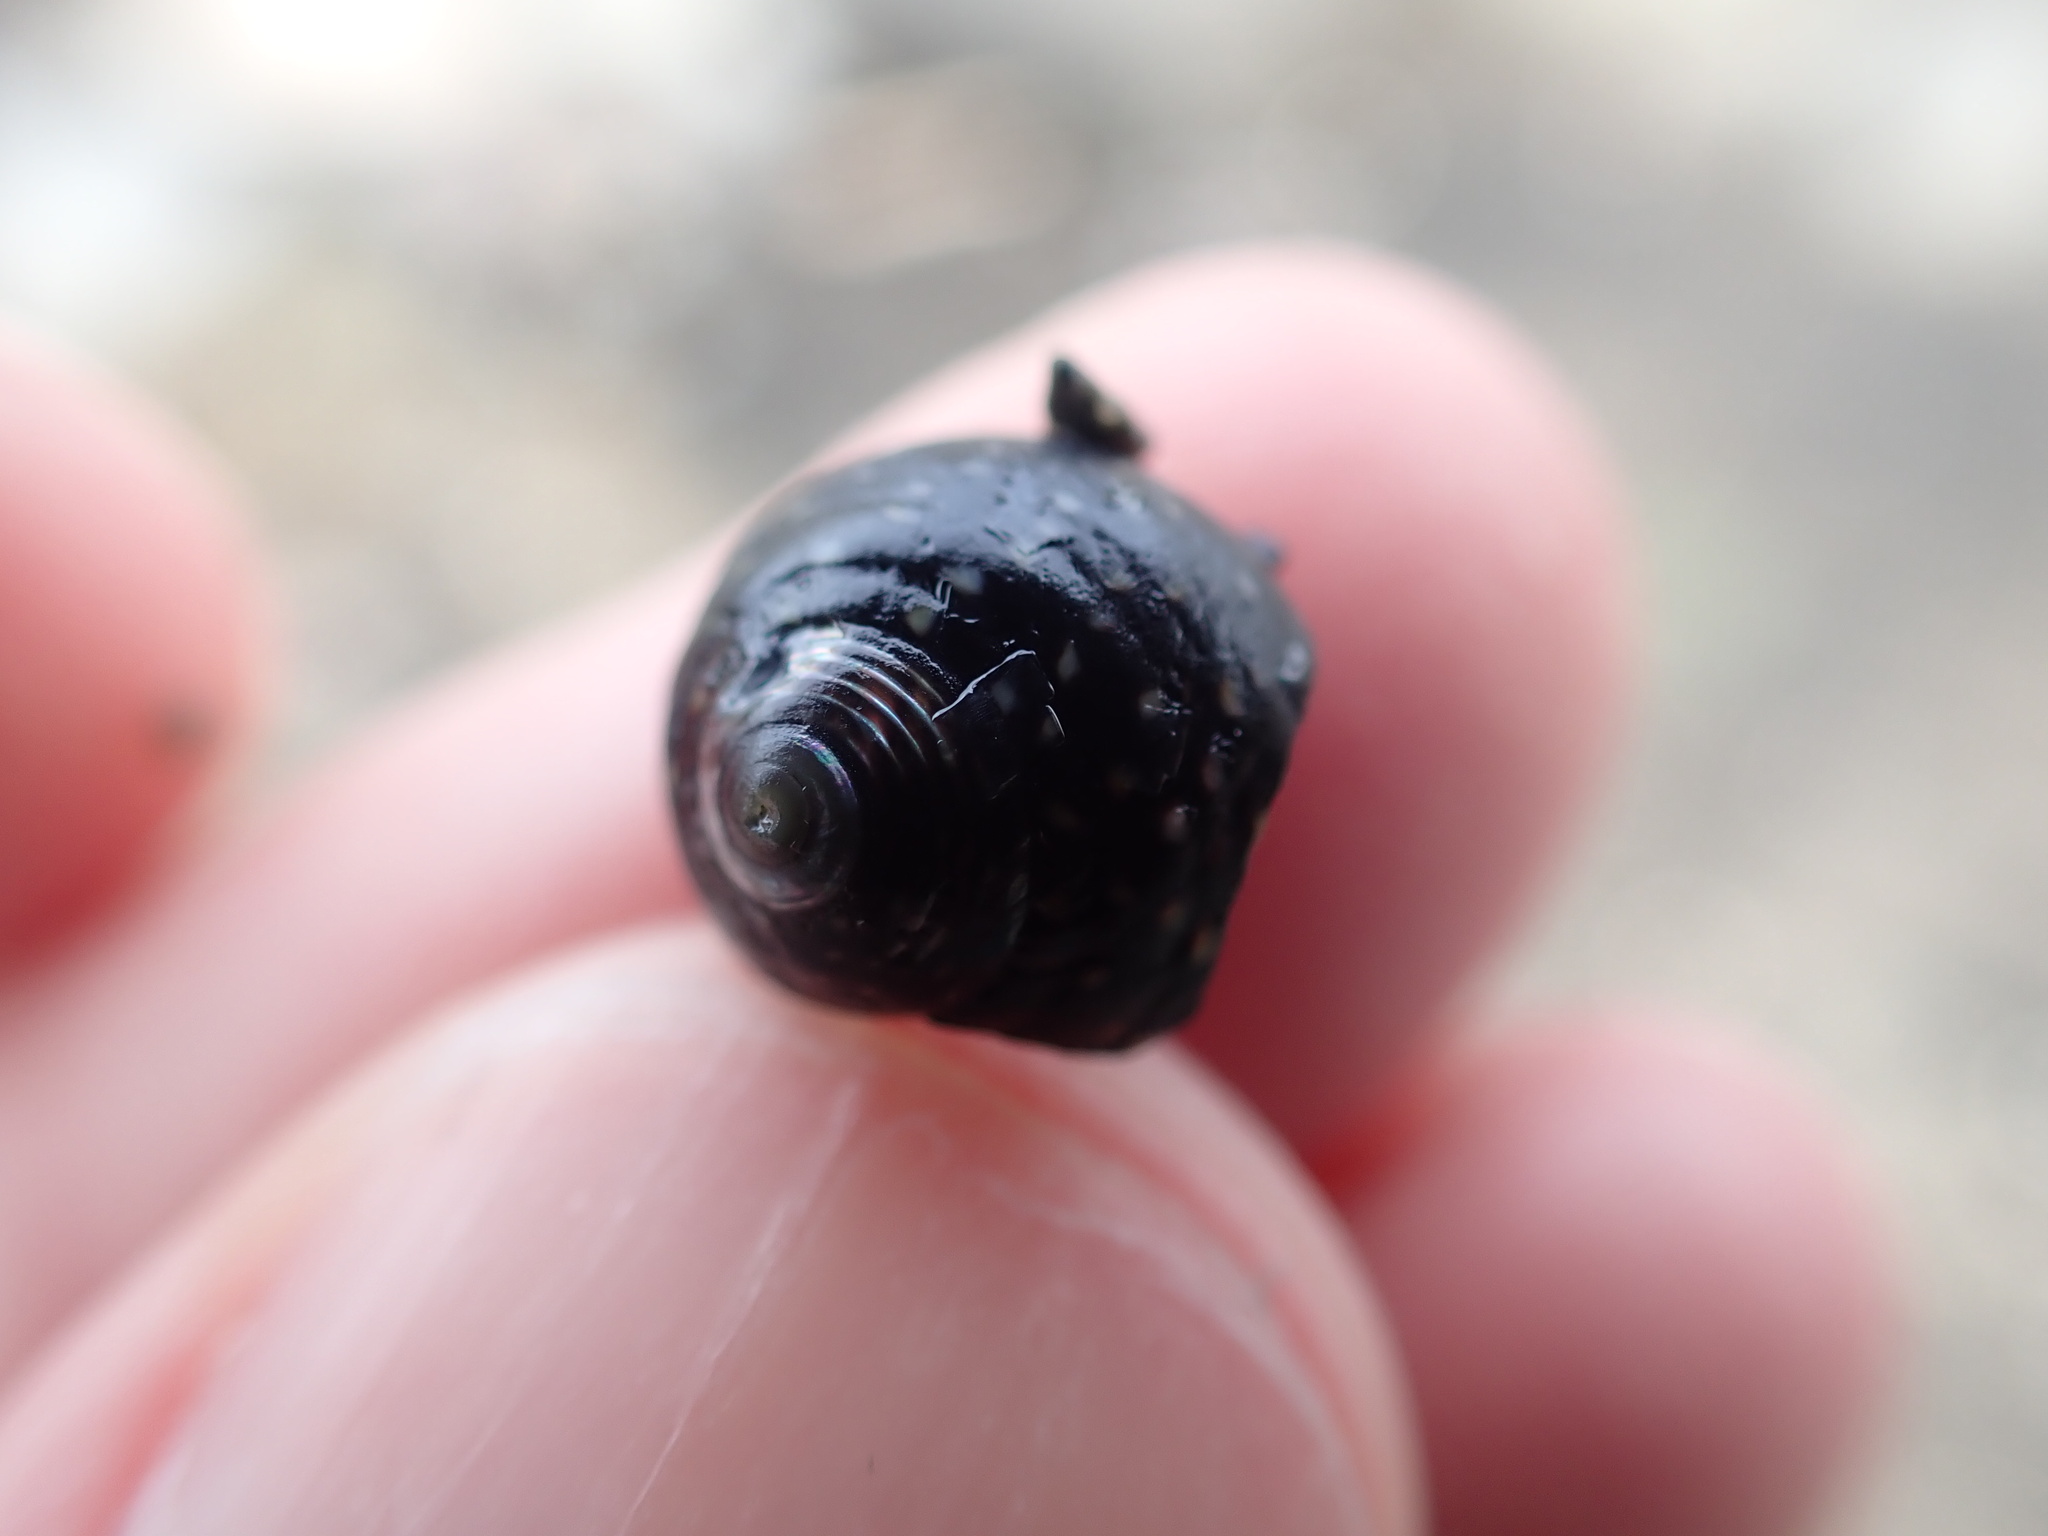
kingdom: Animalia
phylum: Mollusca
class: Gastropoda
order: Trochida
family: Trochidae
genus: Diloma
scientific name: Diloma aridum
